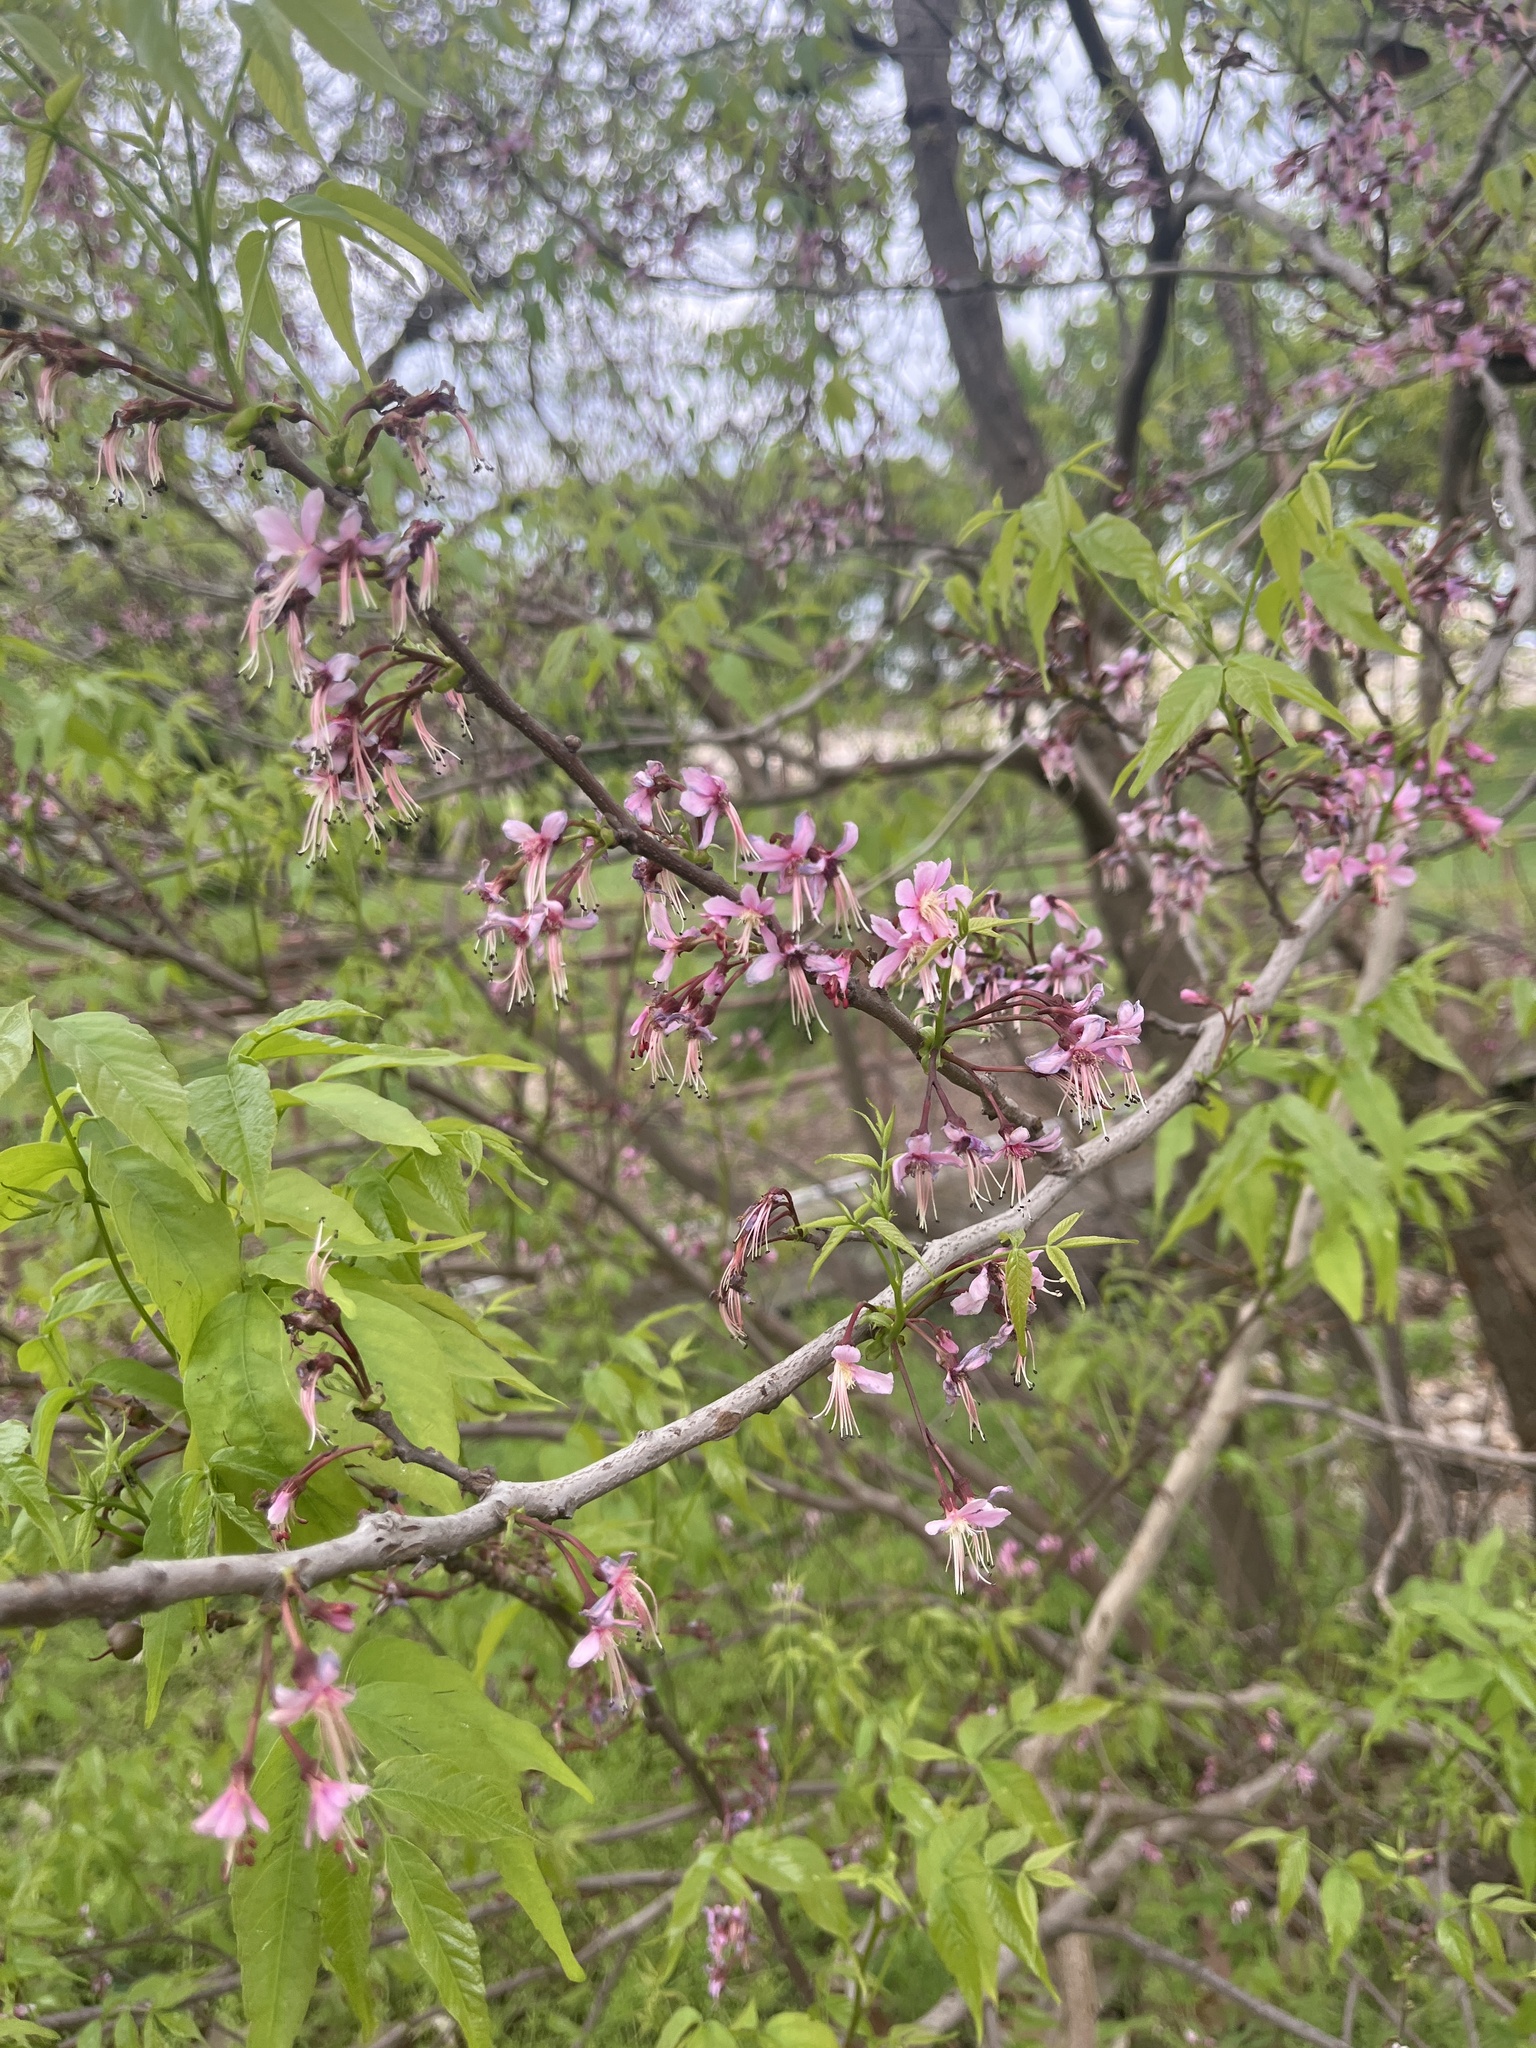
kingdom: Plantae
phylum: Tracheophyta
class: Magnoliopsida
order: Sapindales
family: Sapindaceae
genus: Ungnadia
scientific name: Ungnadia speciosa
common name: Texas-buckeye
